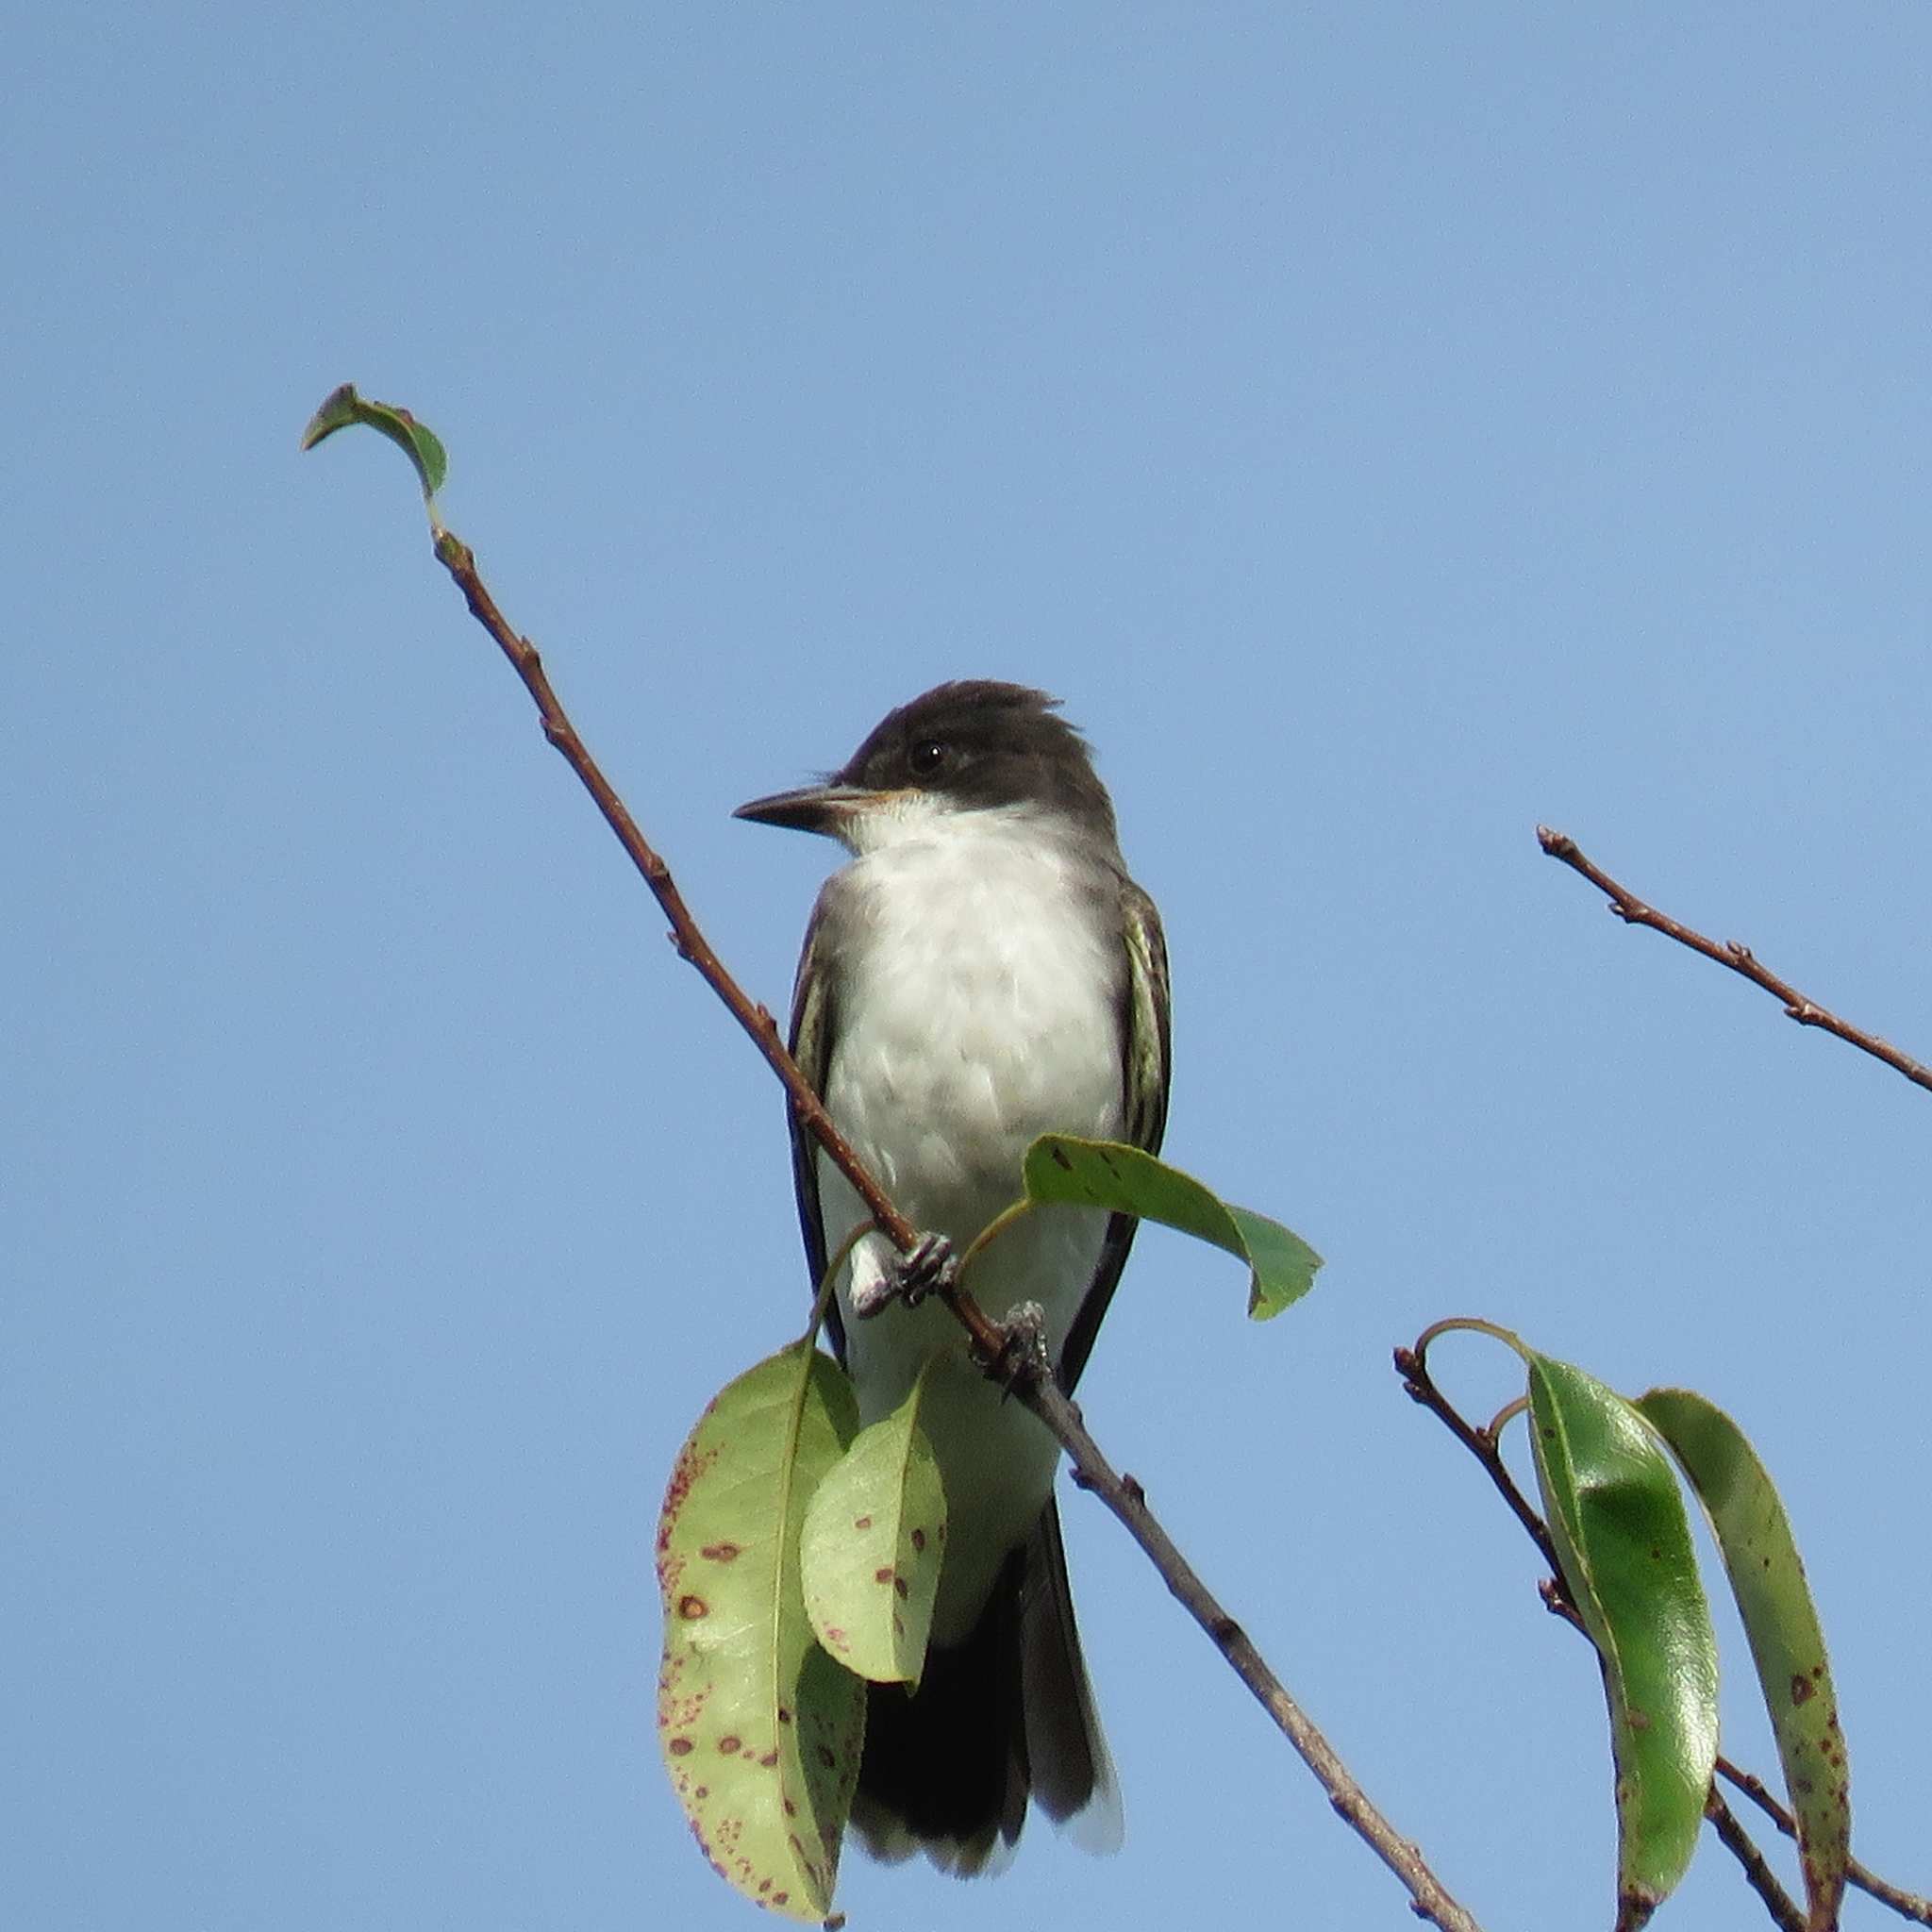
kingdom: Animalia
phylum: Chordata
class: Aves
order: Passeriformes
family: Tyrannidae
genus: Tyrannus
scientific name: Tyrannus tyrannus
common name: Eastern kingbird
